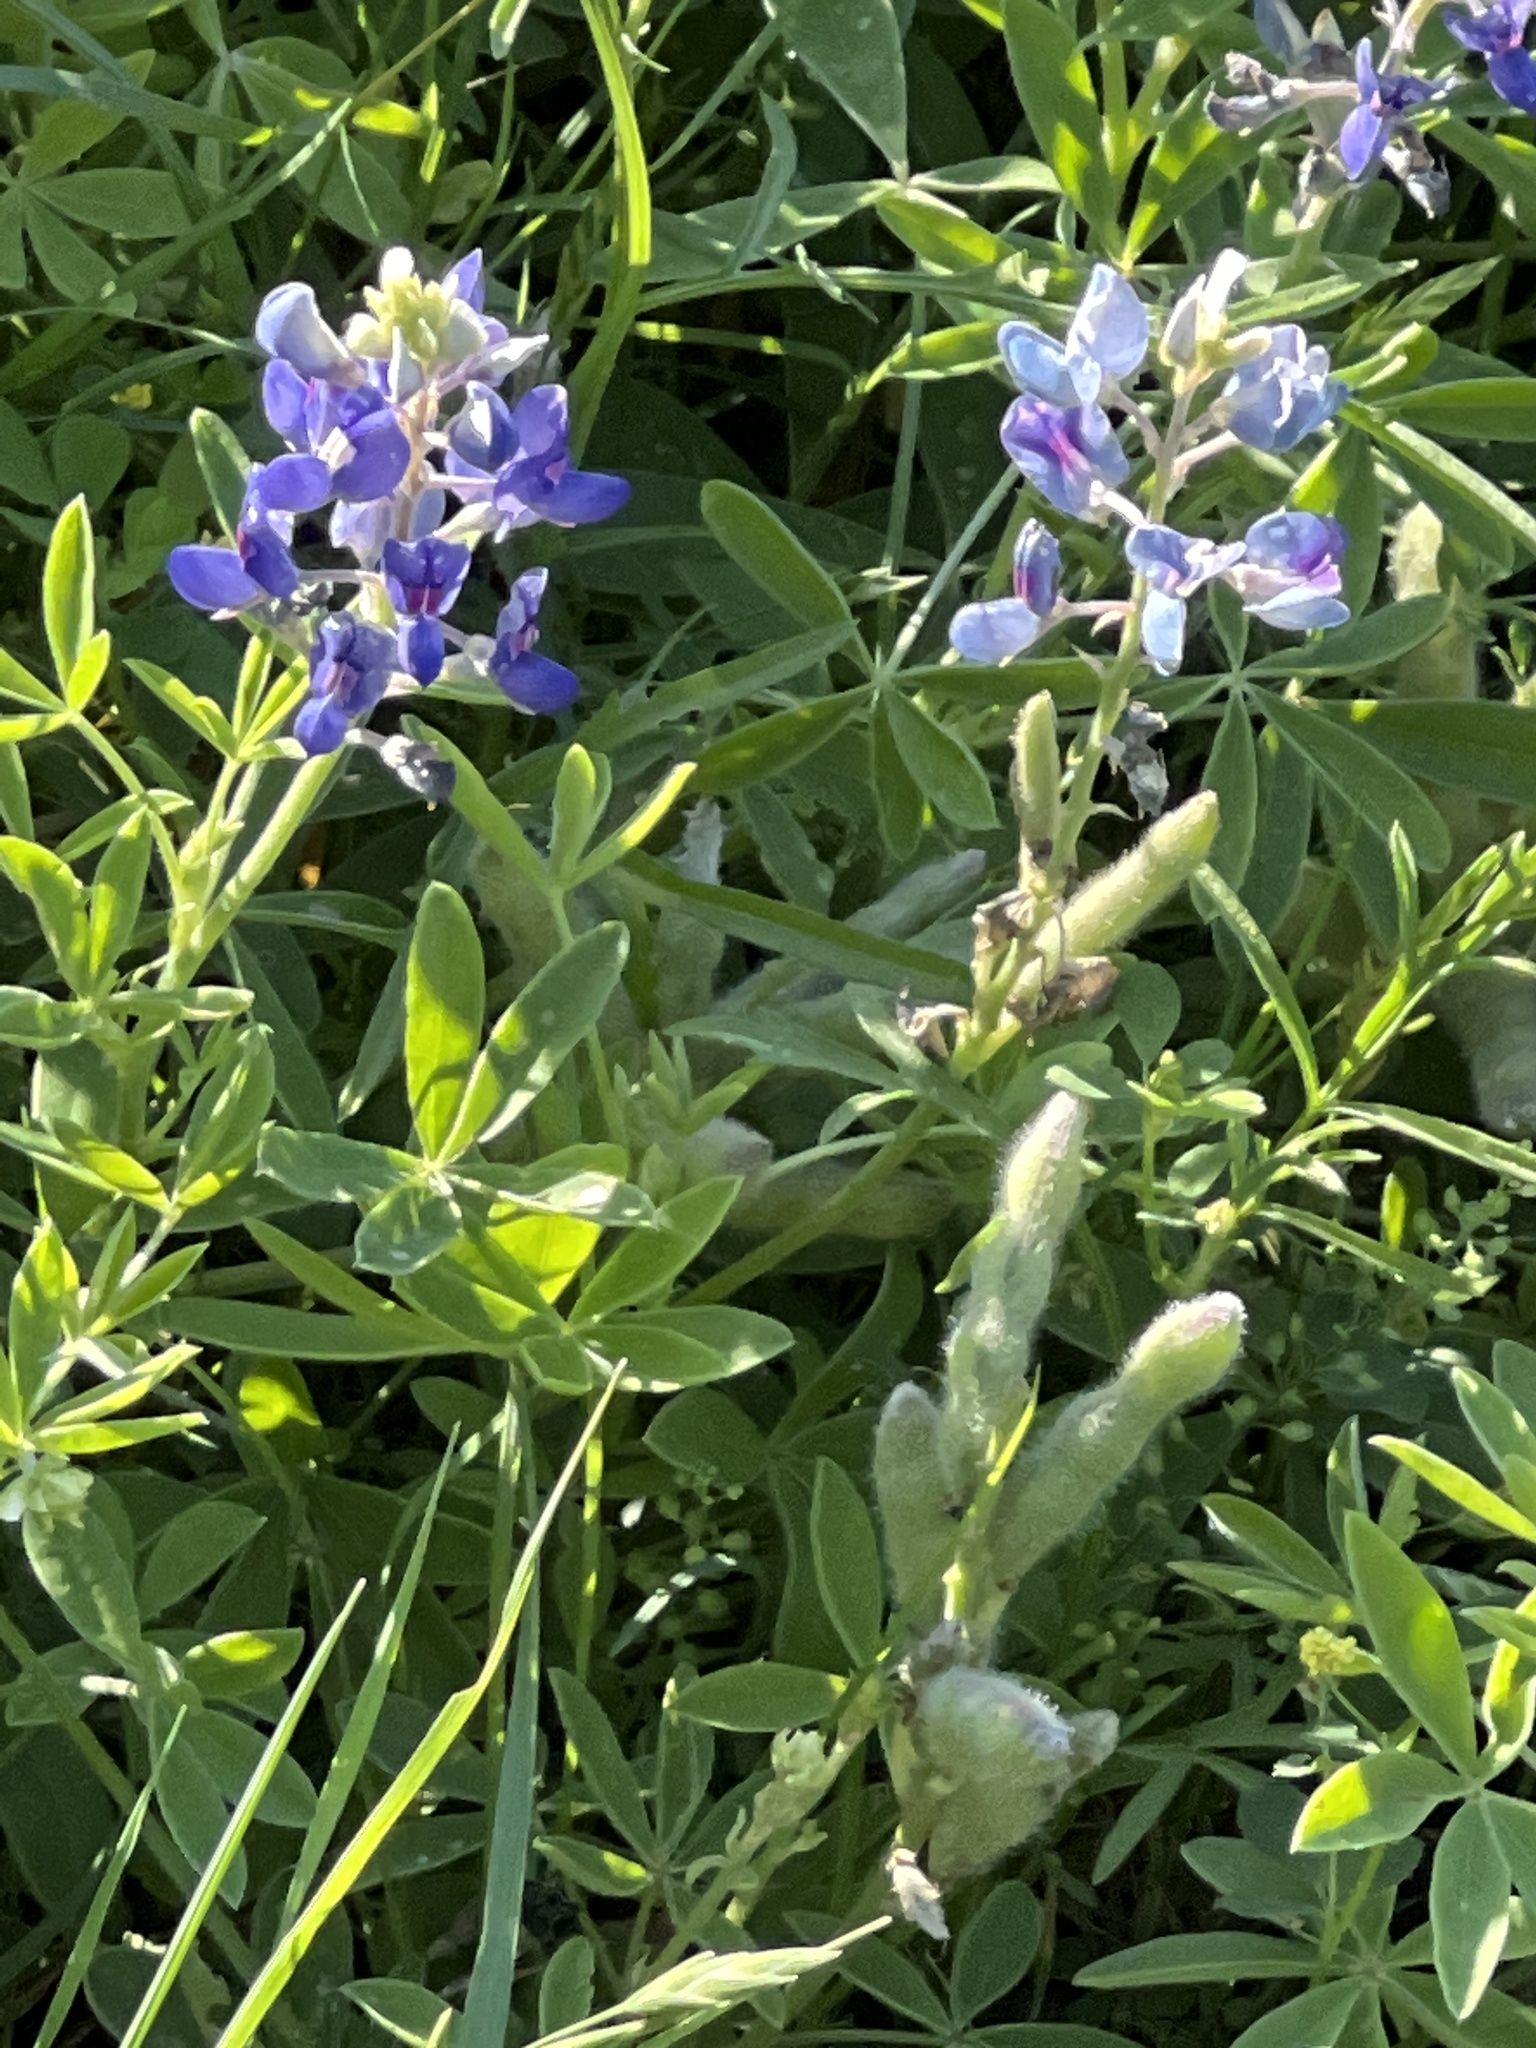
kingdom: Plantae
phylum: Tracheophyta
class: Magnoliopsida
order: Fabales
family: Fabaceae
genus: Lupinus
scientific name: Lupinus texensis
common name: Texas bluebonnet
